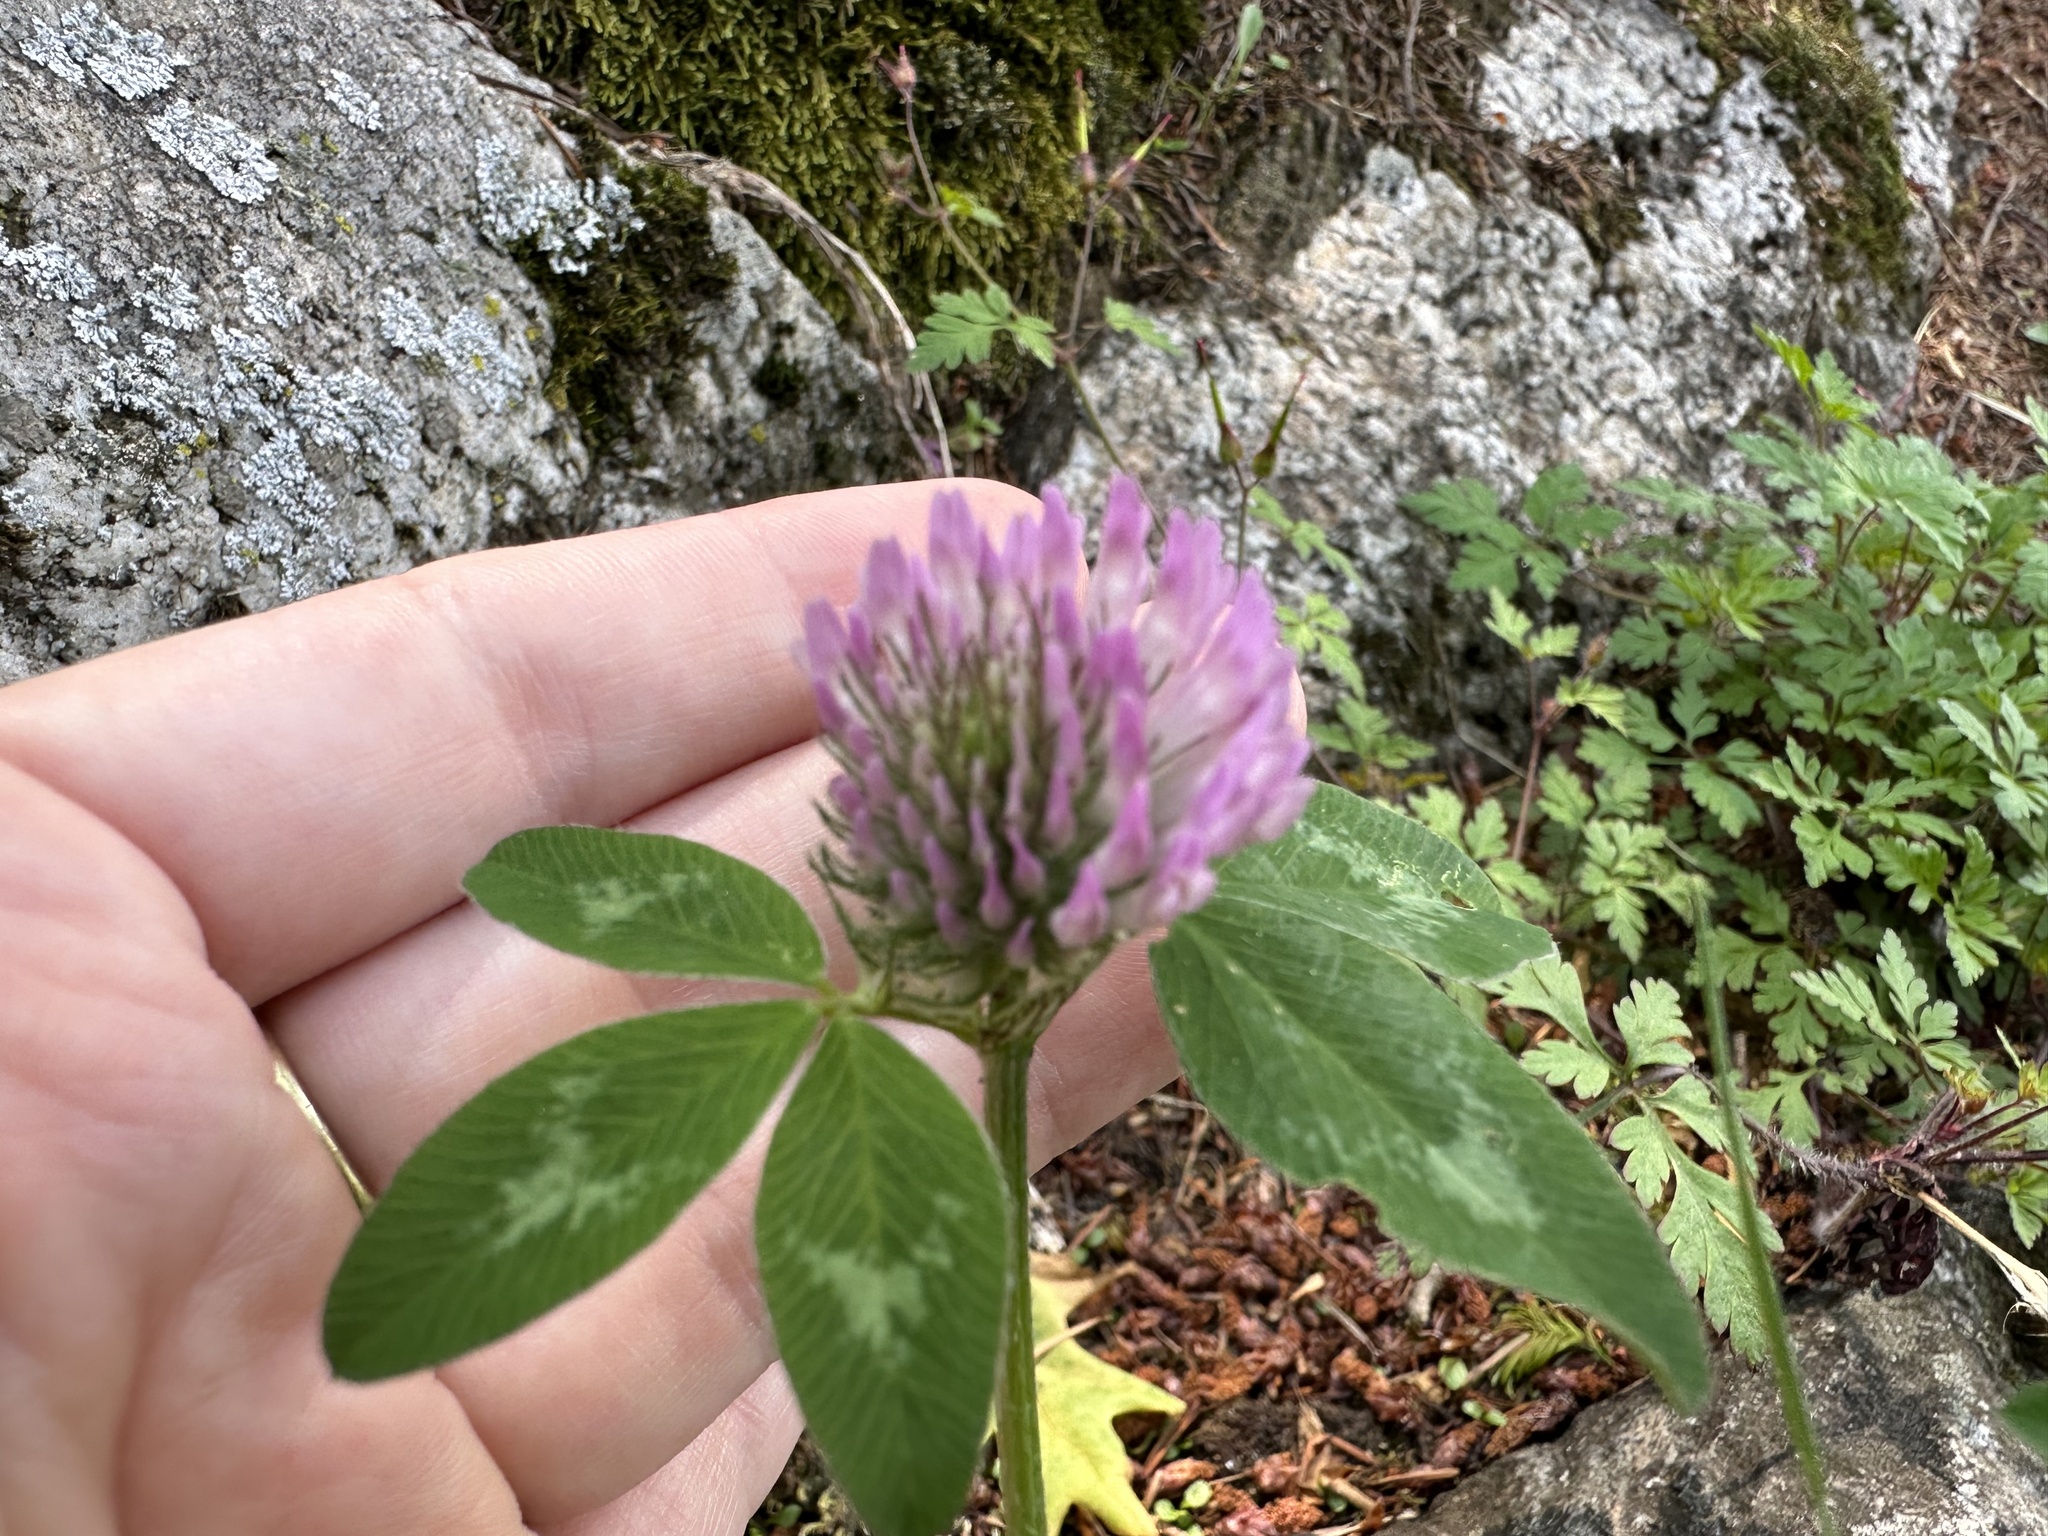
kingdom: Plantae
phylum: Tracheophyta
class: Magnoliopsida
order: Fabales
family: Fabaceae
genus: Trifolium
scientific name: Trifolium pratense
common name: Red clover
